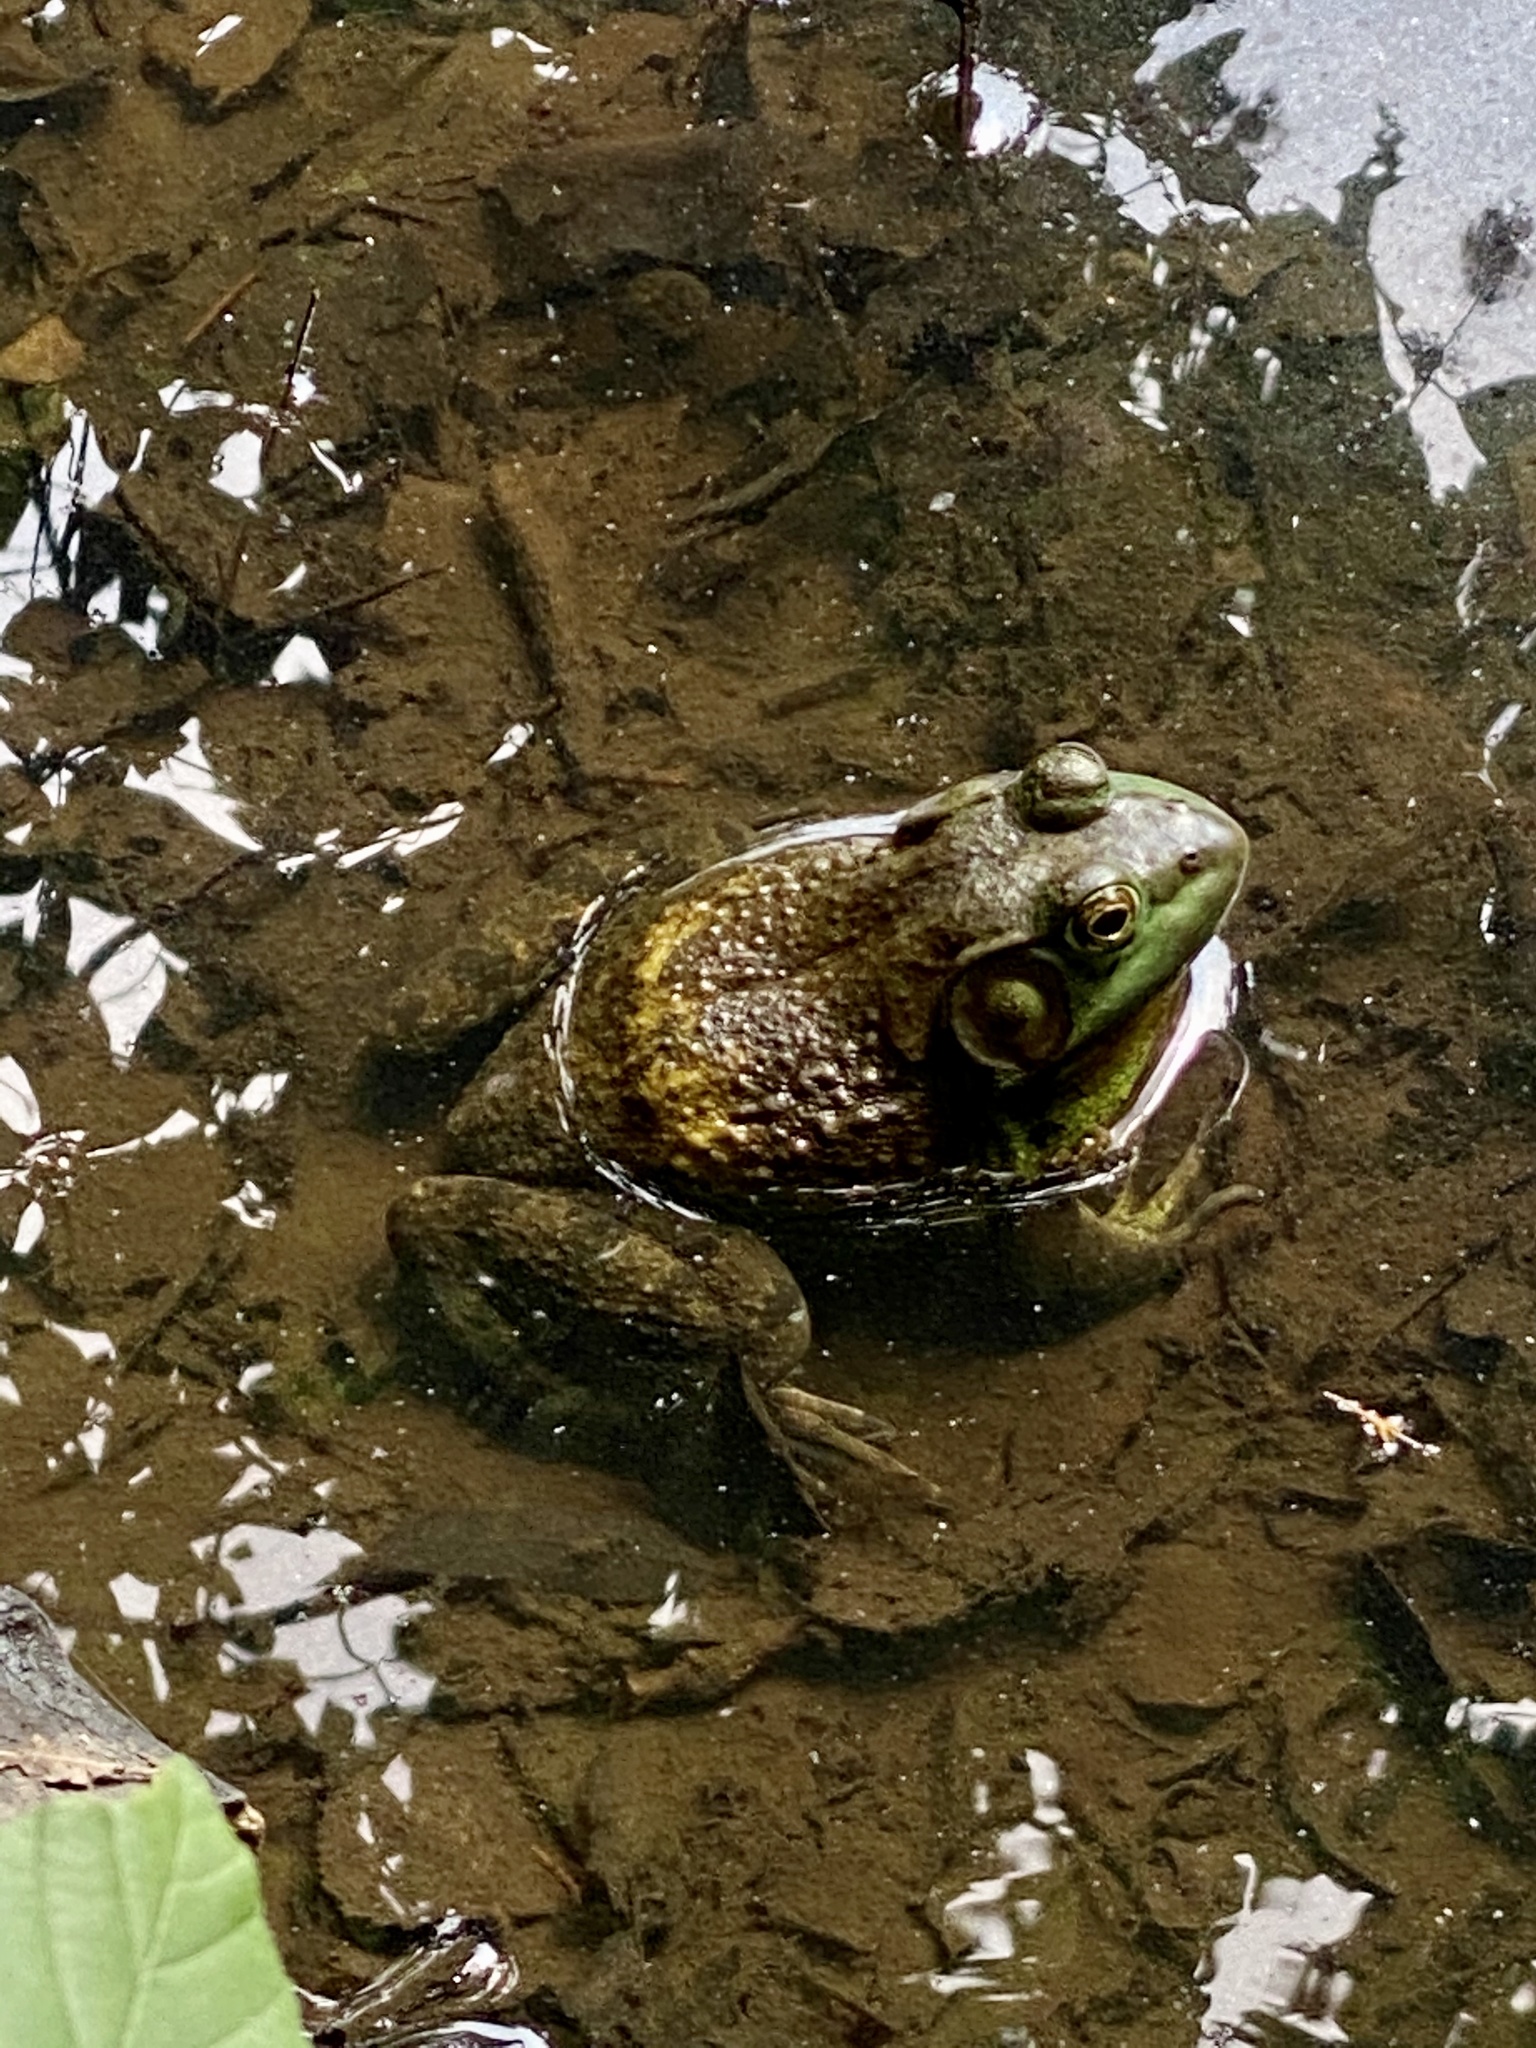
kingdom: Animalia
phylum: Chordata
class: Amphibia
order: Anura
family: Ranidae
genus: Lithobates
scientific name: Lithobates catesbeianus
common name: American bullfrog
